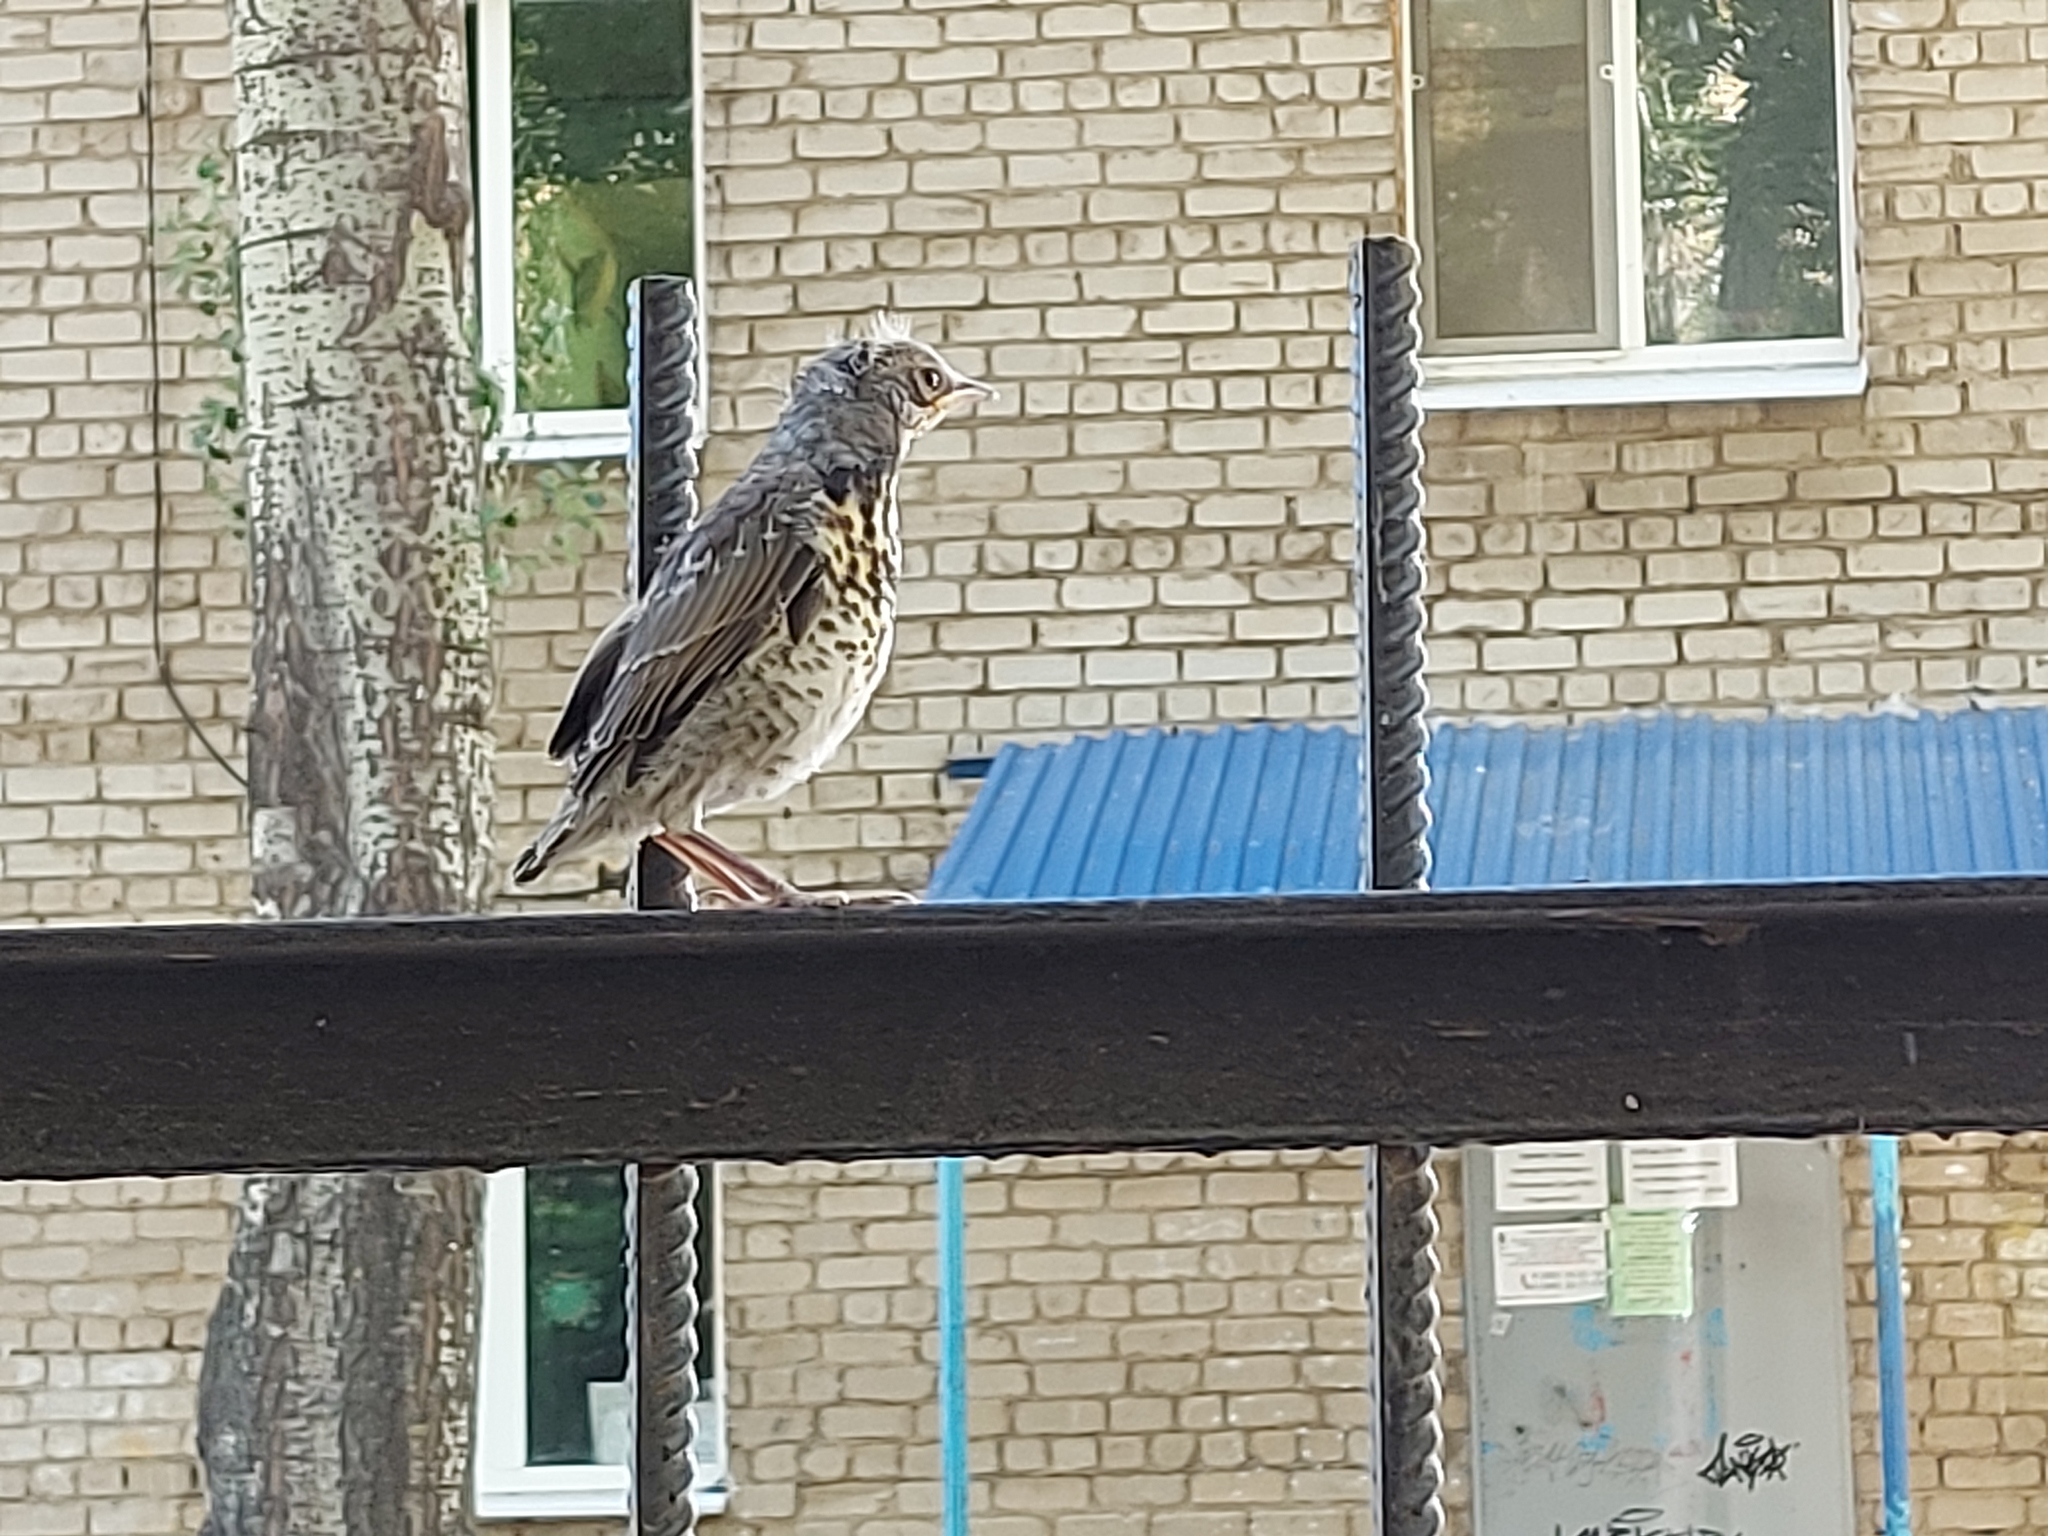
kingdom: Animalia
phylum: Chordata
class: Aves
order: Passeriformes
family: Turdidae
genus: Turdus
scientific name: Turdus pilaris
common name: Fieldfare
